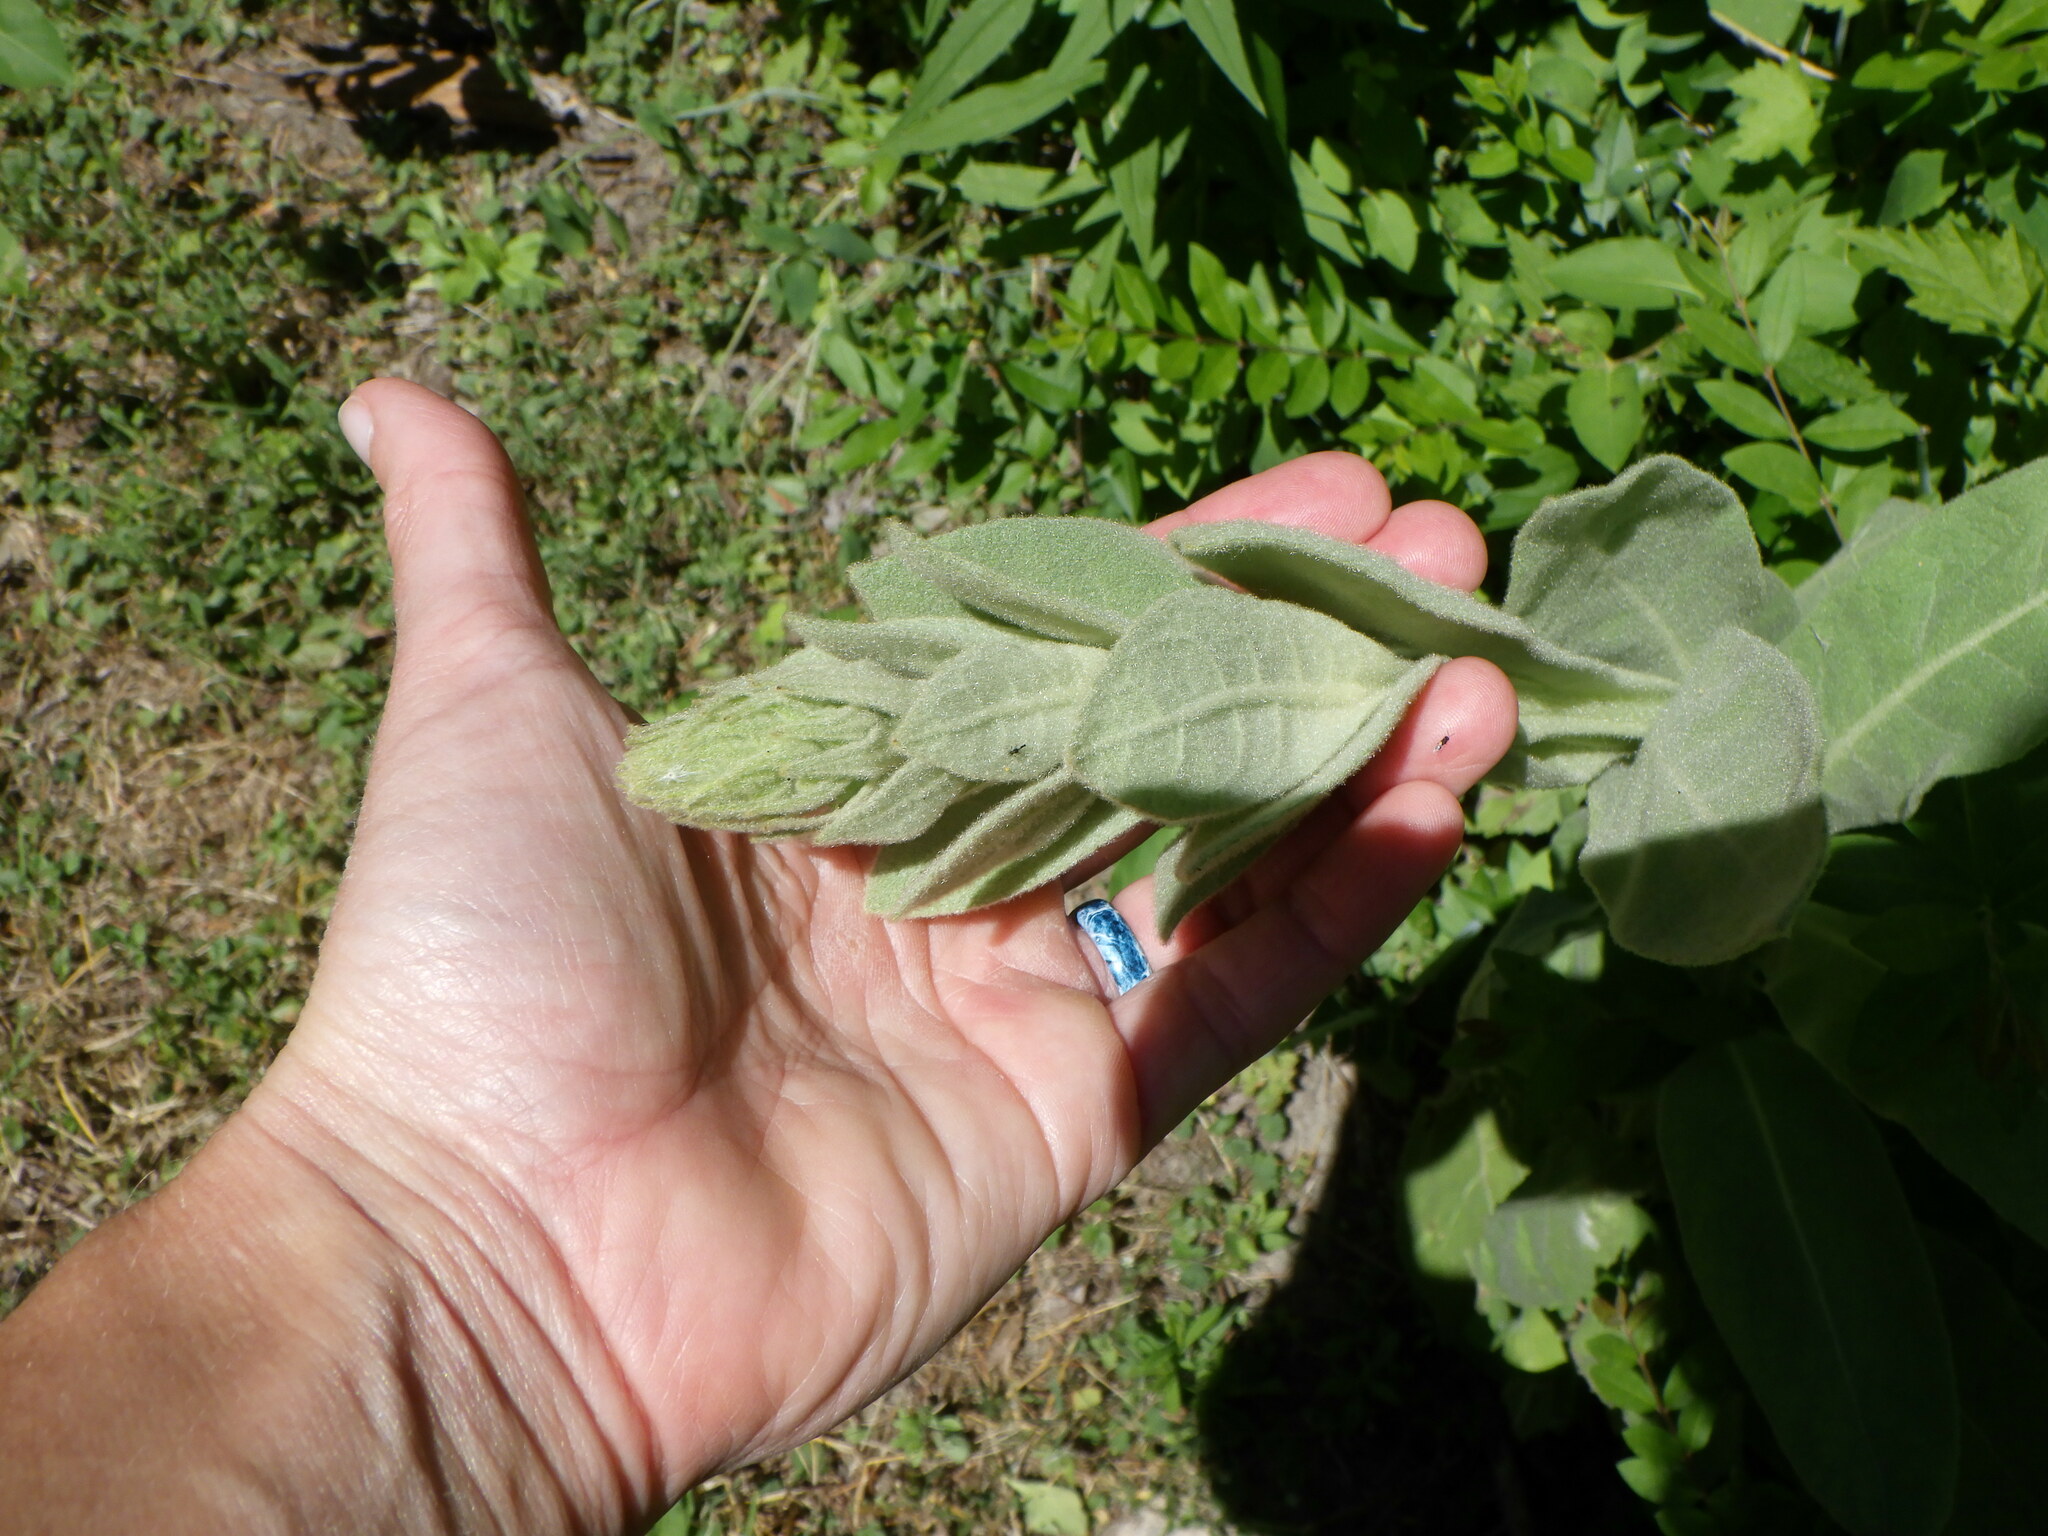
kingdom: Plantae
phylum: Tracheophyta
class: Magnoliopsida
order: Lamiales
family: Scrophulariaceae
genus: Verbascum
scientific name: Verbascum thapsus
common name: Common mullein
